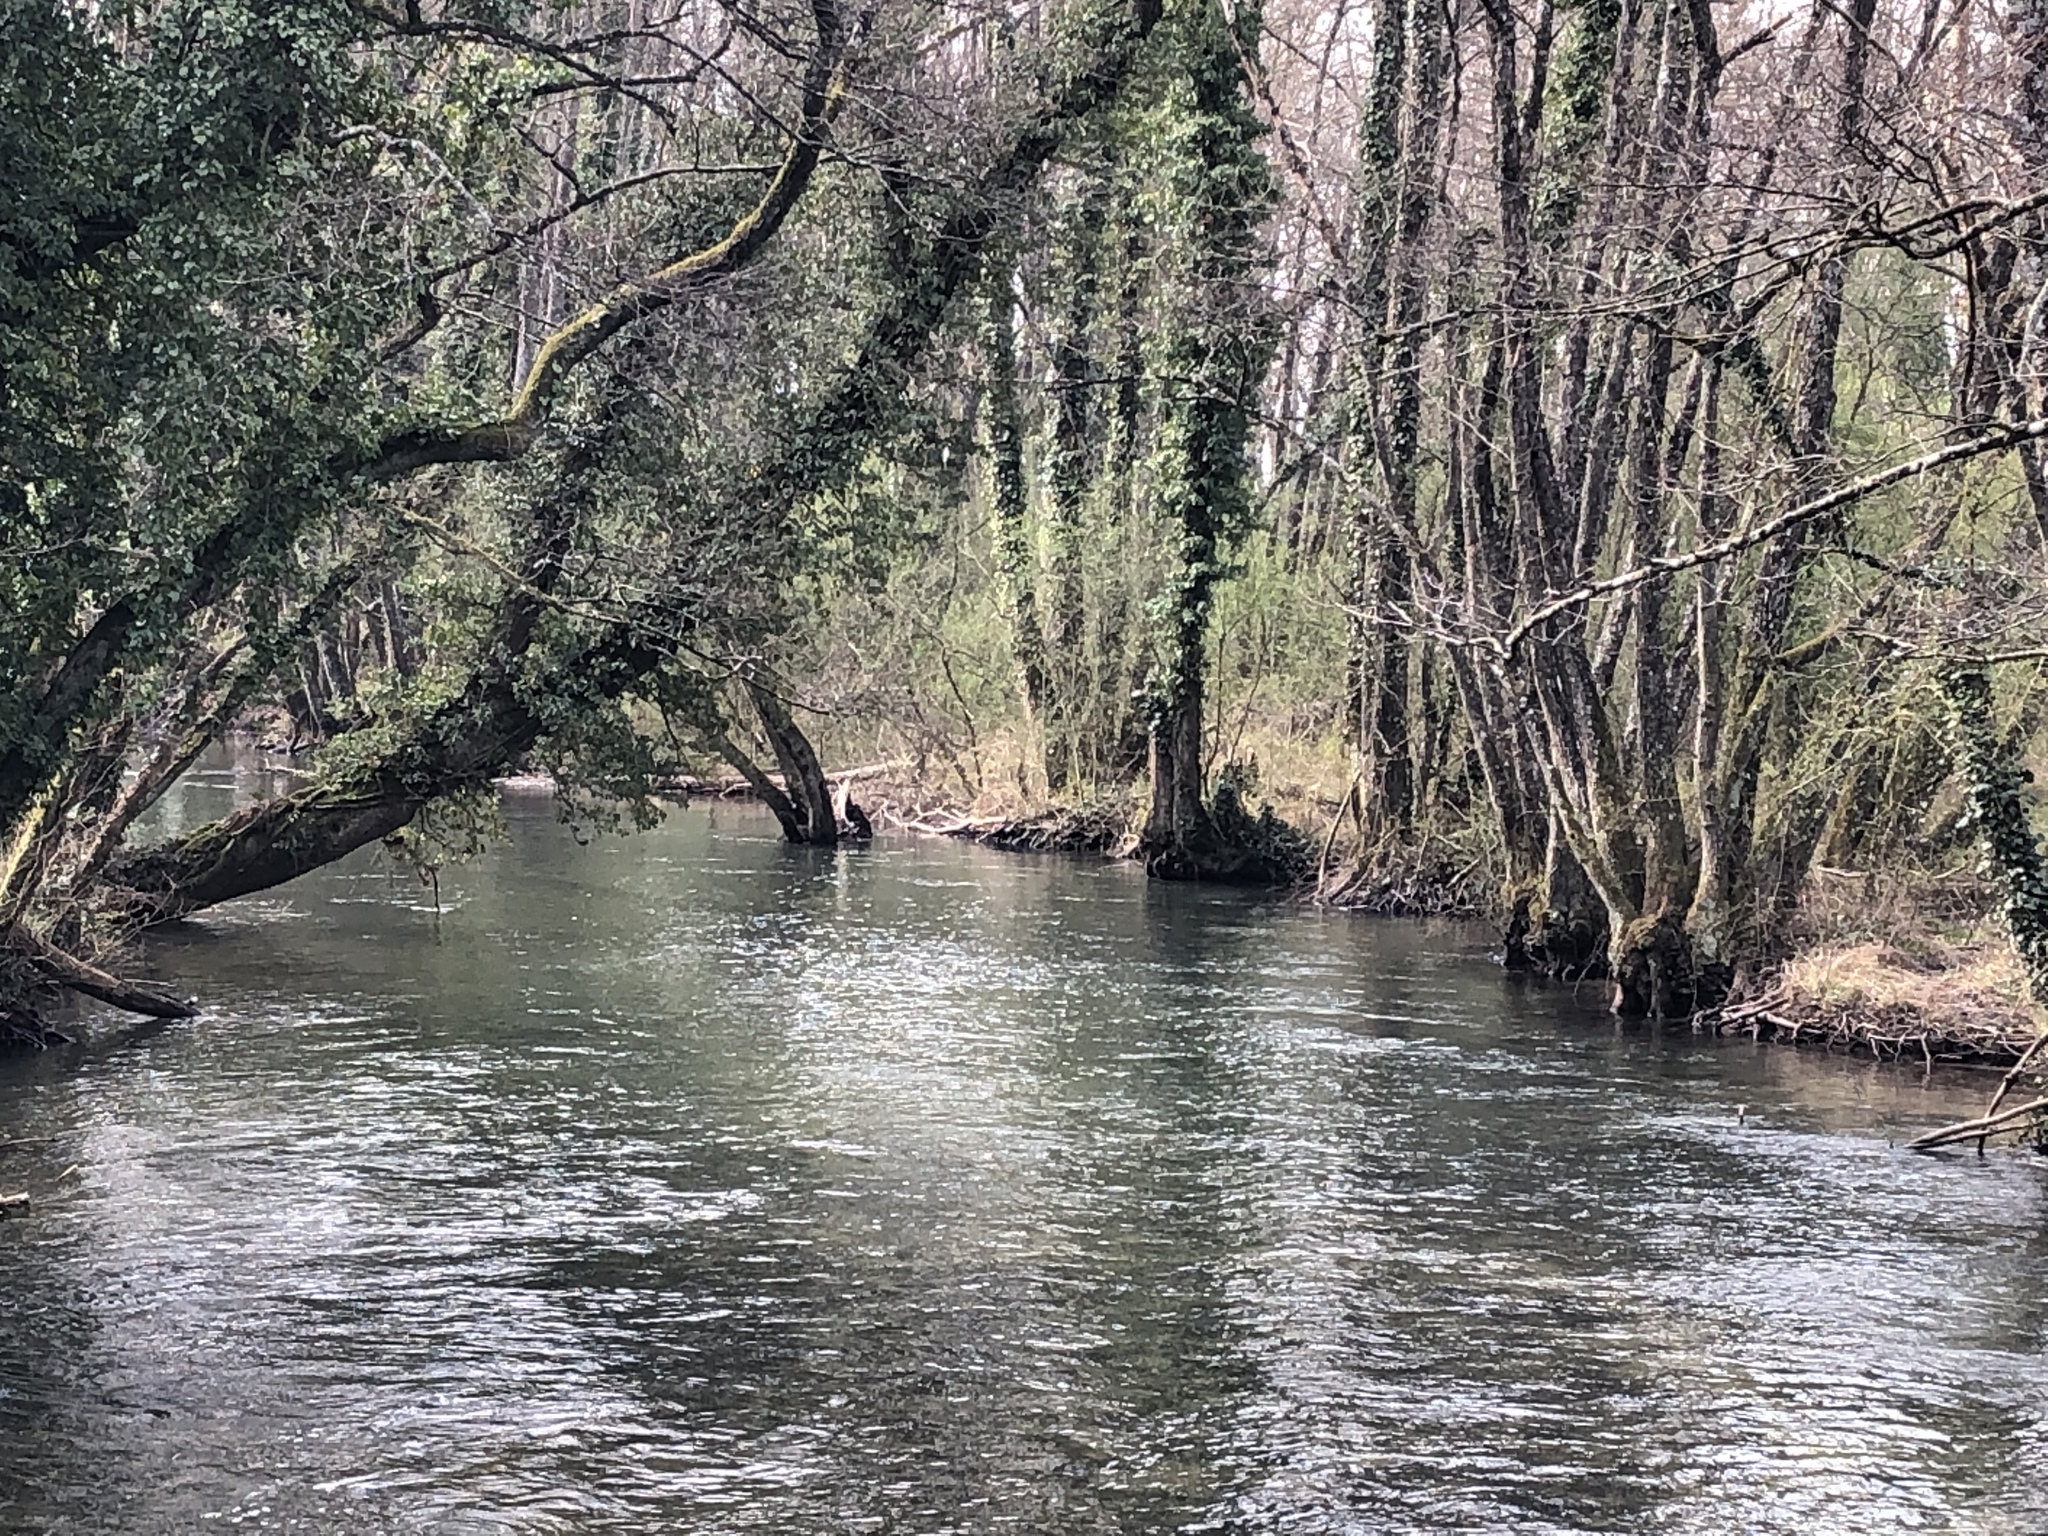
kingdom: Animalia
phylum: Chordata
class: Aves
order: Passeriformes
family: Cinclidae
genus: Cinclus
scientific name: Cinclus cinclus
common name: White-throated dipper
